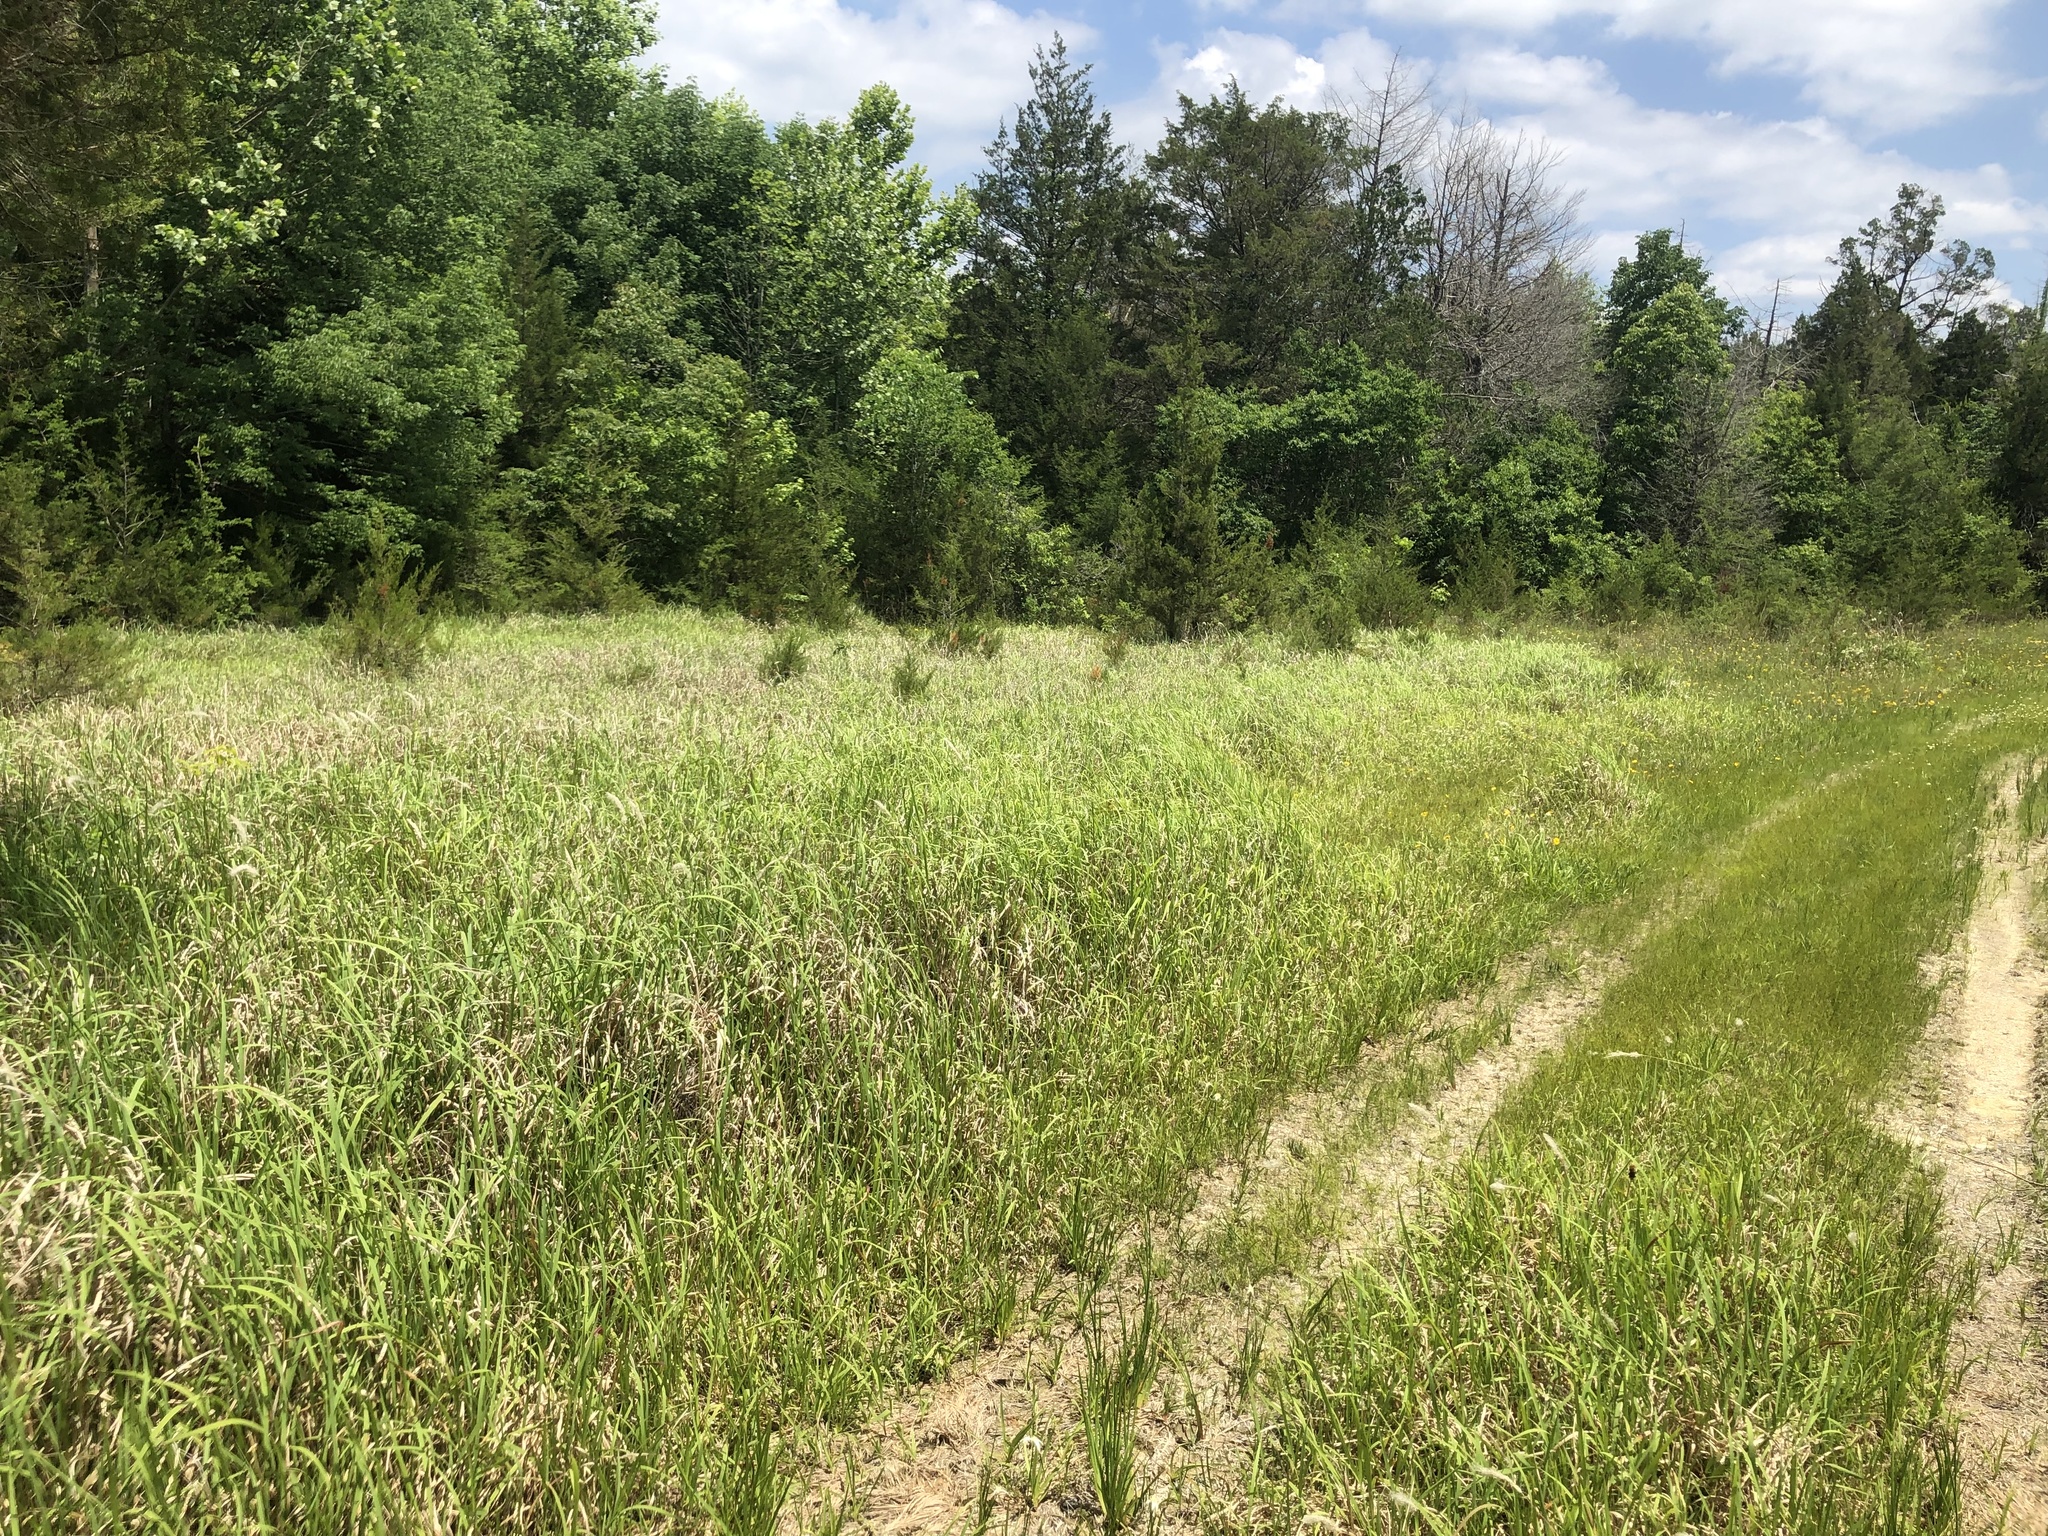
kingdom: Plantae
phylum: Tracheophyta
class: Liliopsida
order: Poales
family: Poaceae
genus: Imperata
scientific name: Imperata cylindrica
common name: Cogongrass
